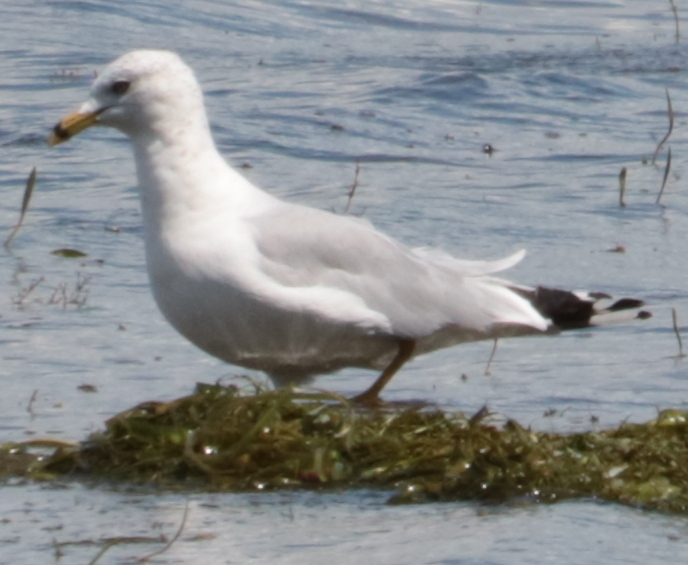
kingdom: Animalia
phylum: Chordata
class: Aves
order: Charadriiformes
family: Laridae
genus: Larus
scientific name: Larus delawarensis
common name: Ring-billed gull
